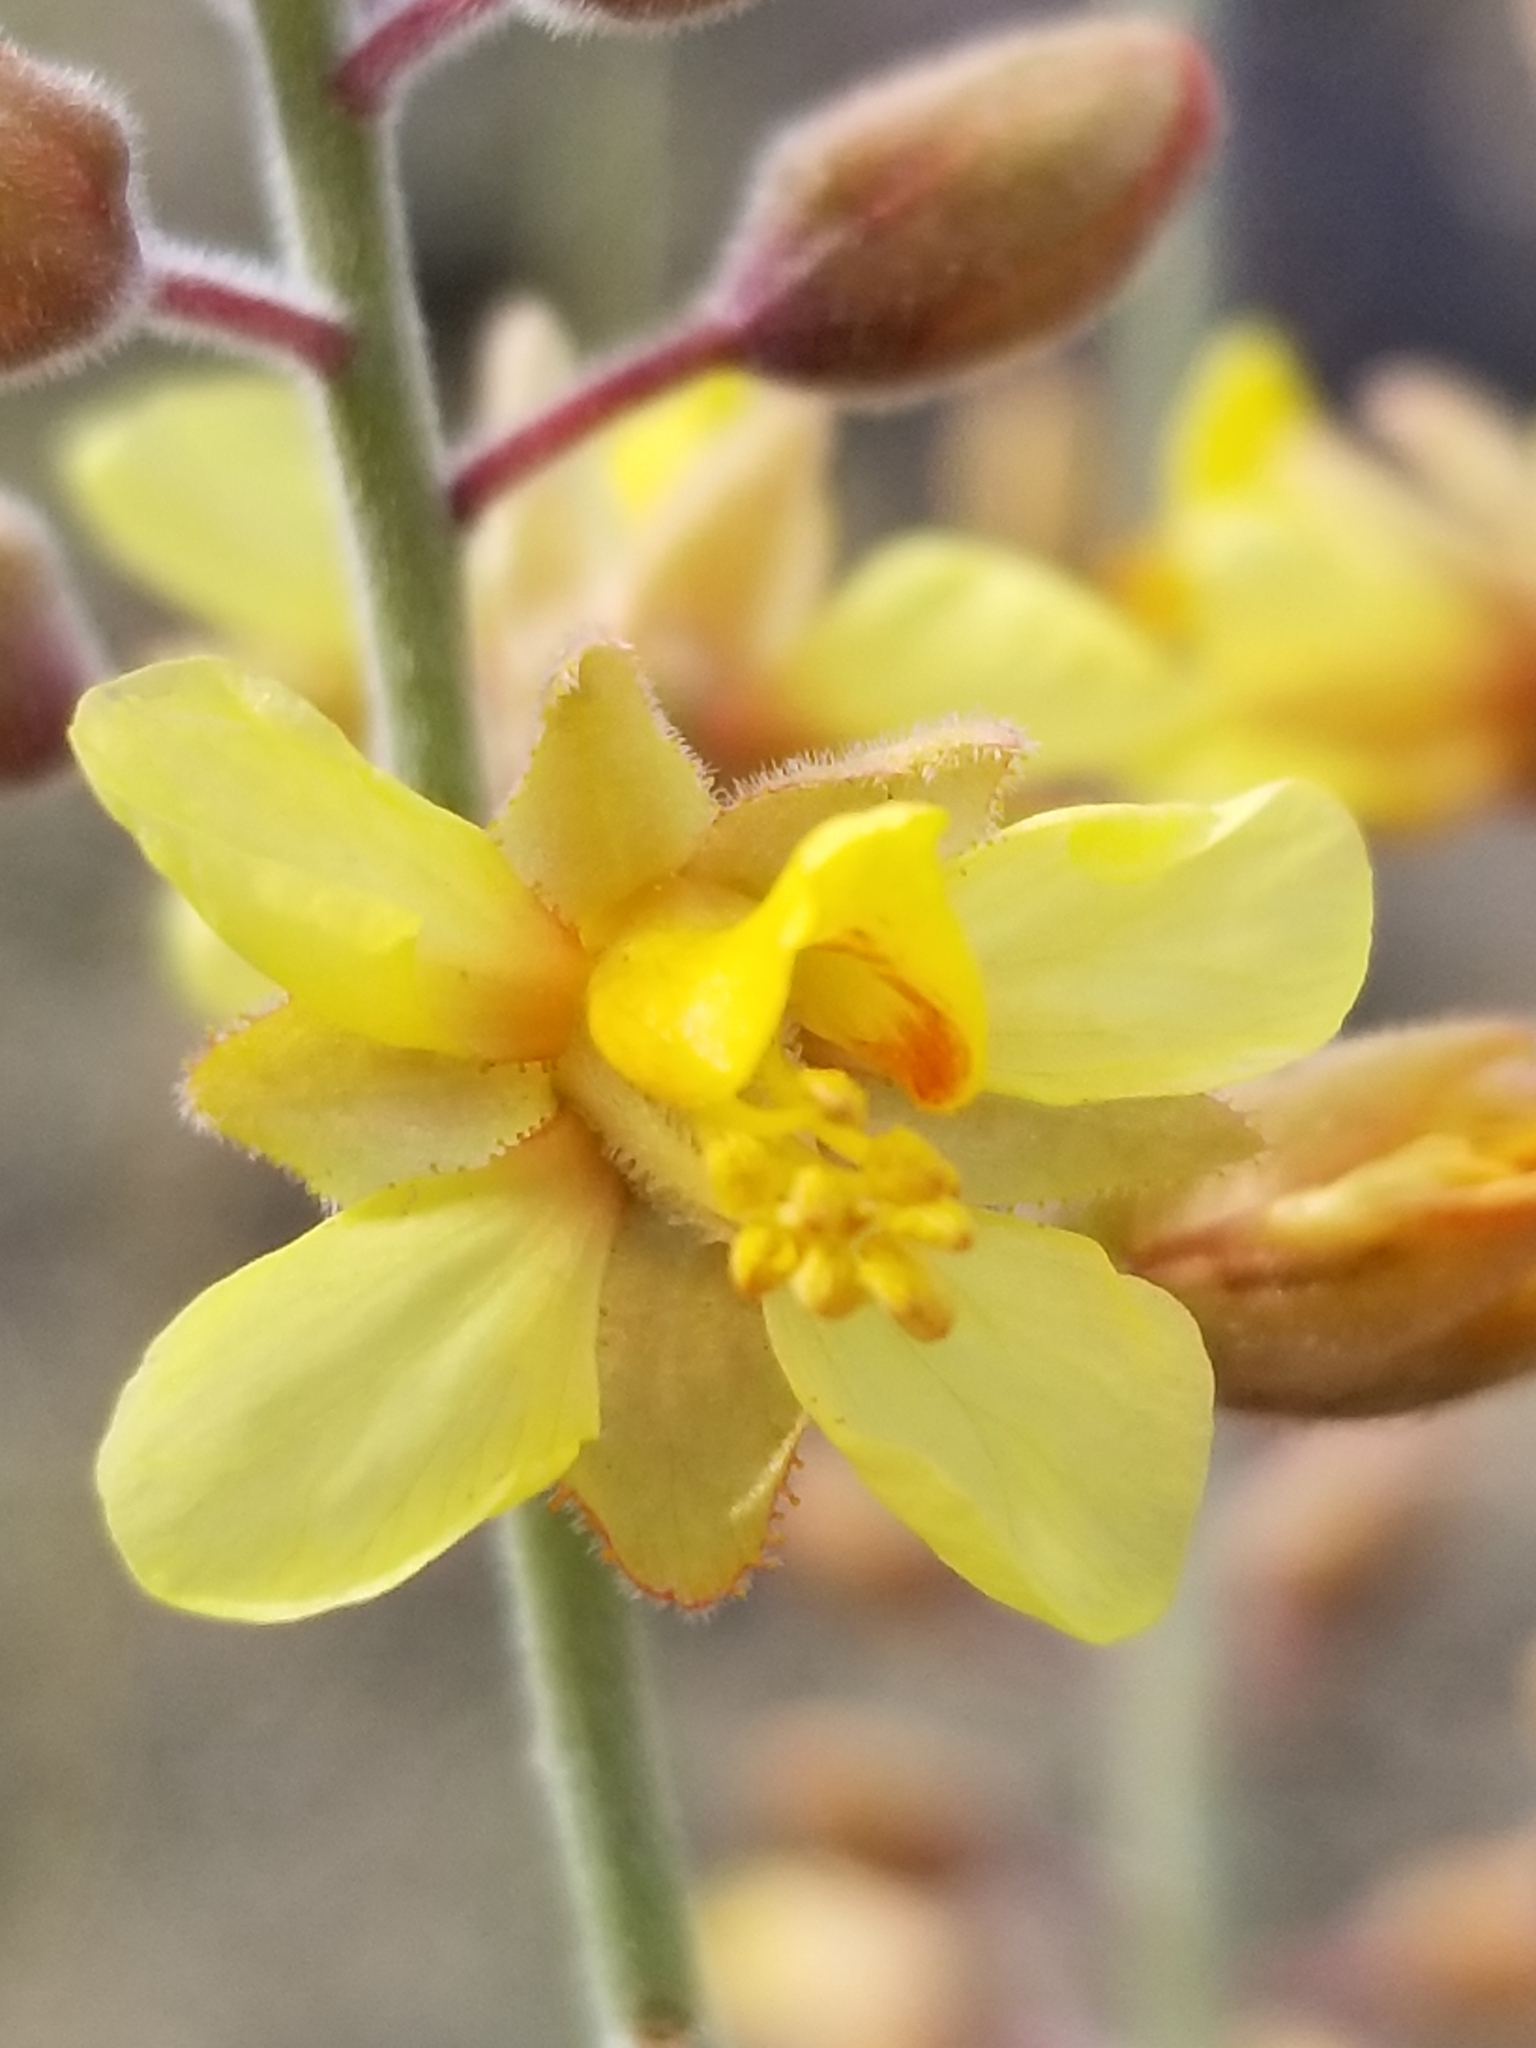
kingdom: Plantae
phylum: Tracheophyta
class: Magnoliopsida
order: Fabales
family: Fabaceae
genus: Hoffmannseggia
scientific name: Hoffmannseggia microphylla
